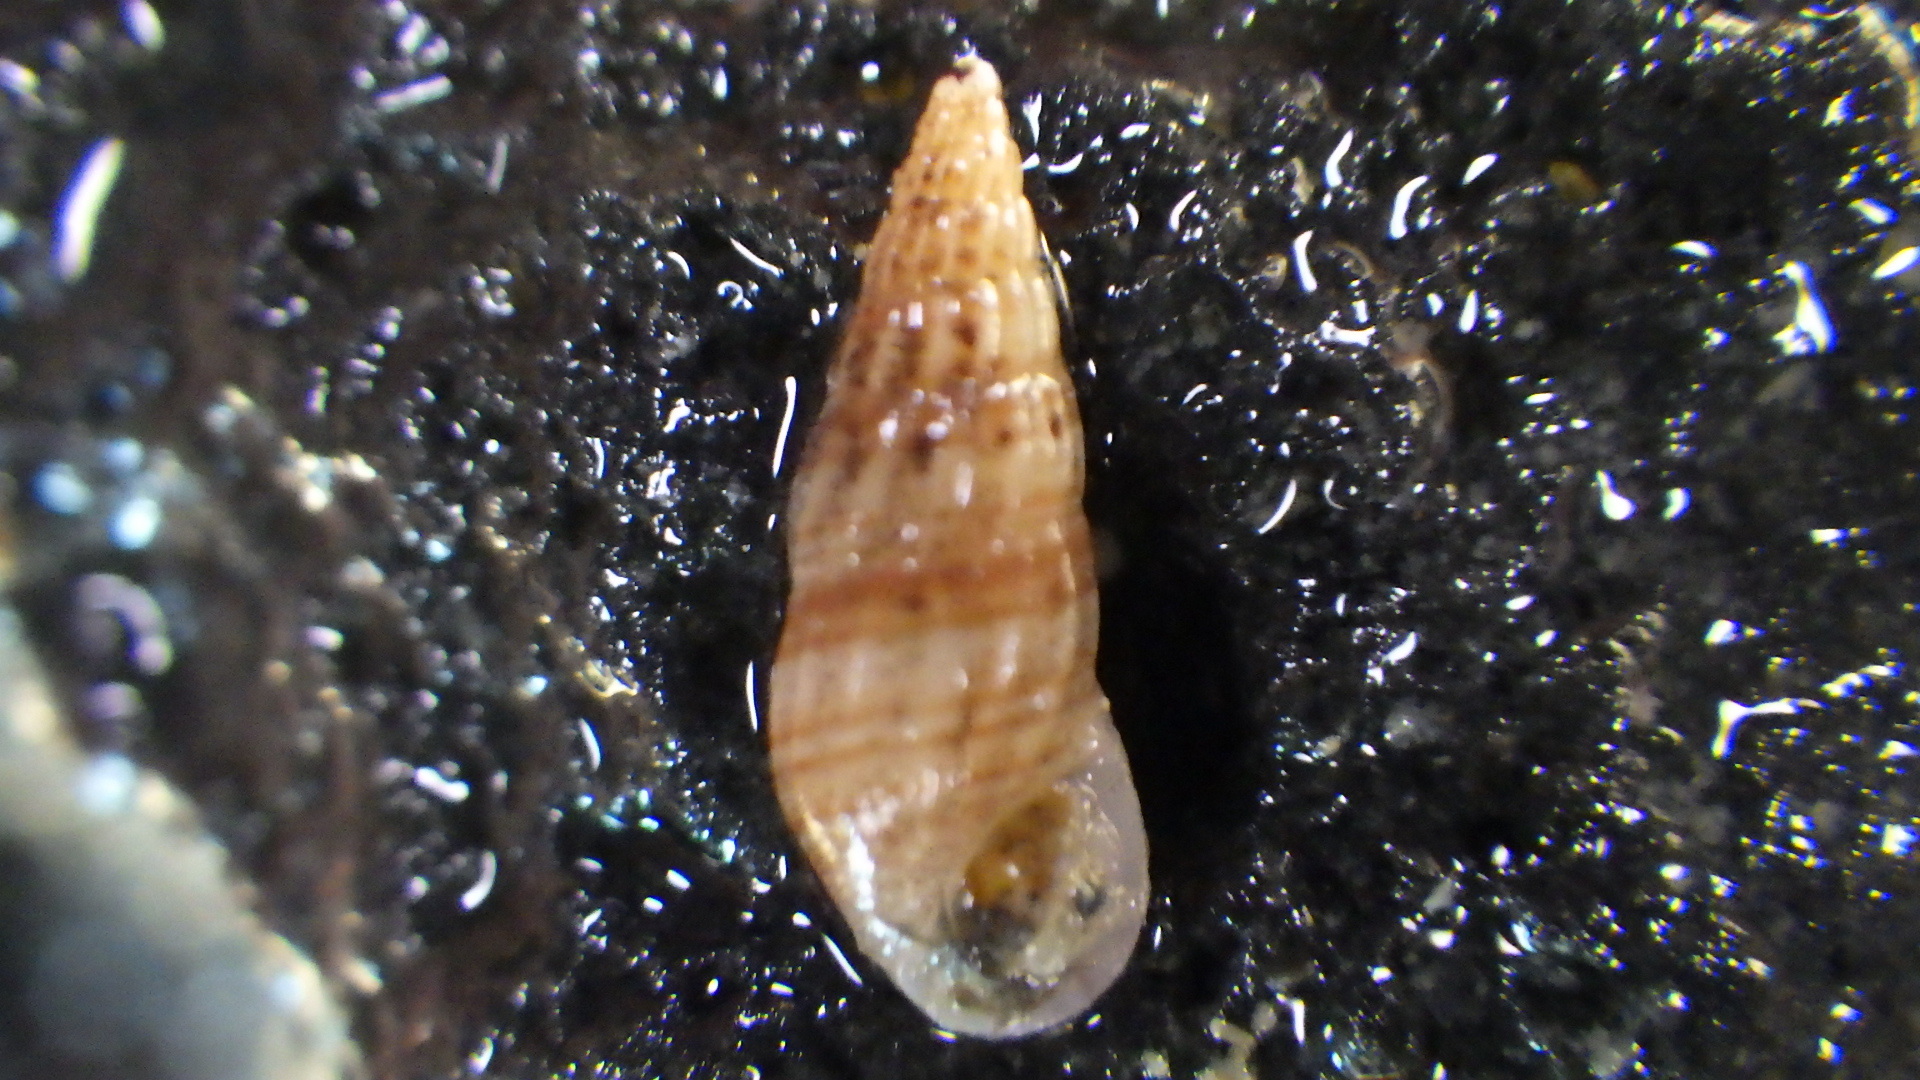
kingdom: Animalia
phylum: Mollusca
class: Gastropoda
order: Littorinimorpha
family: Rissoinidae
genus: Rissoina
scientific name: Rissoina chathamensis
